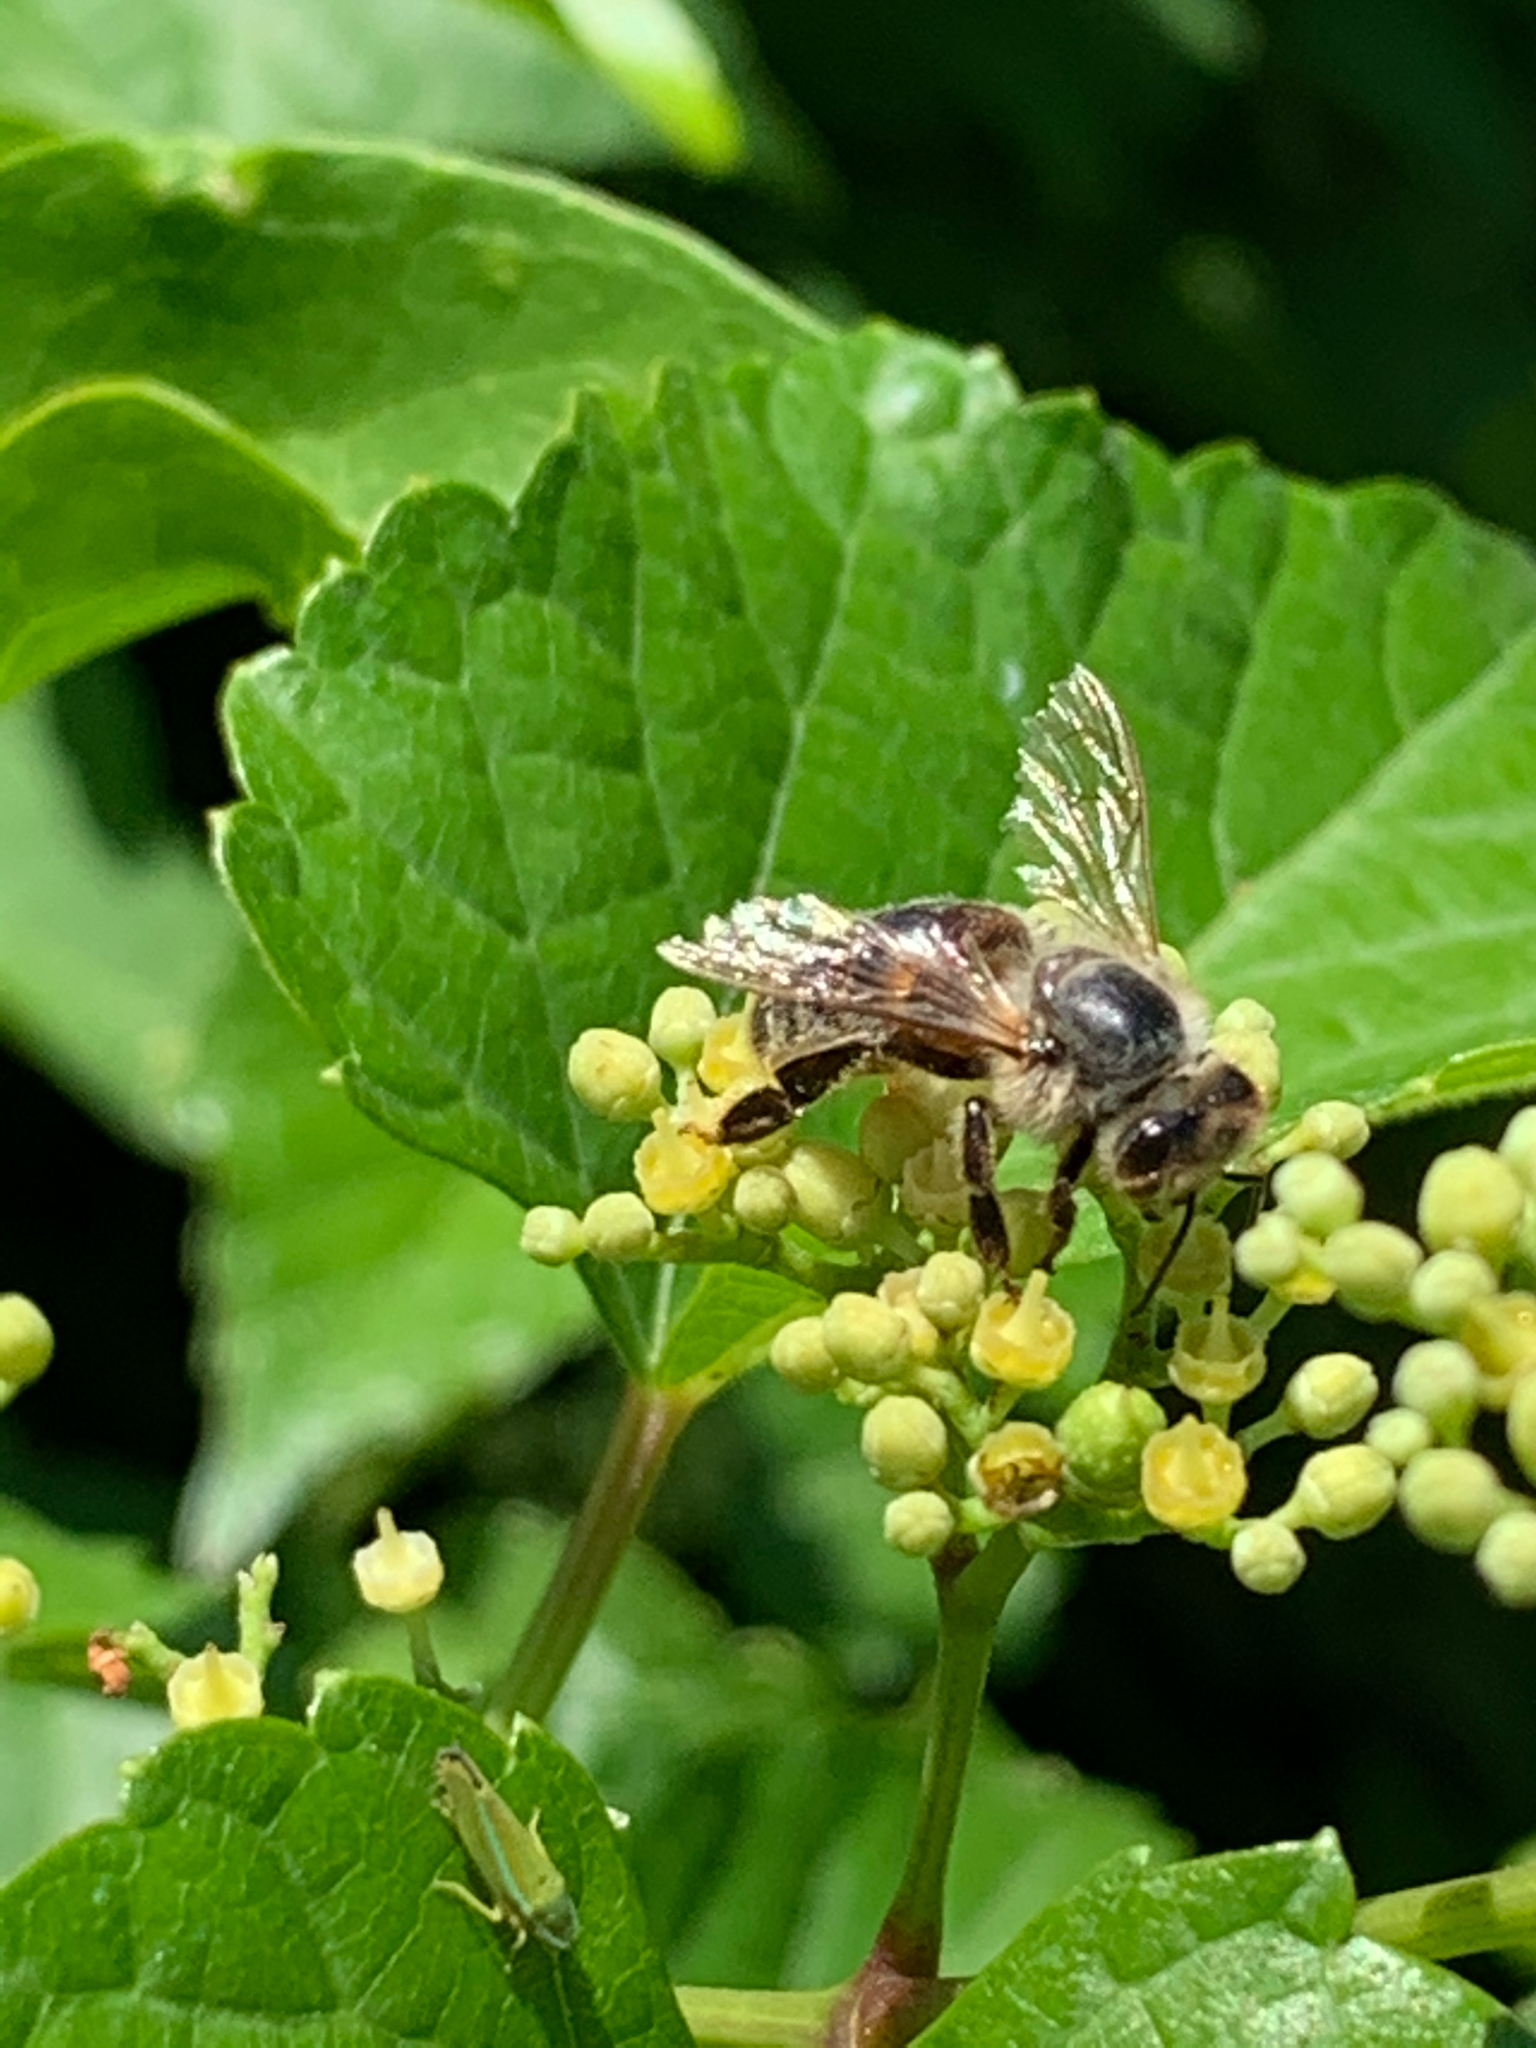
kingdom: Animalia
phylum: Arthropoda
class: Insecta
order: Hymenoptera
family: Apidae
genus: Apis
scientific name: Apis mellifera
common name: Honey bee
